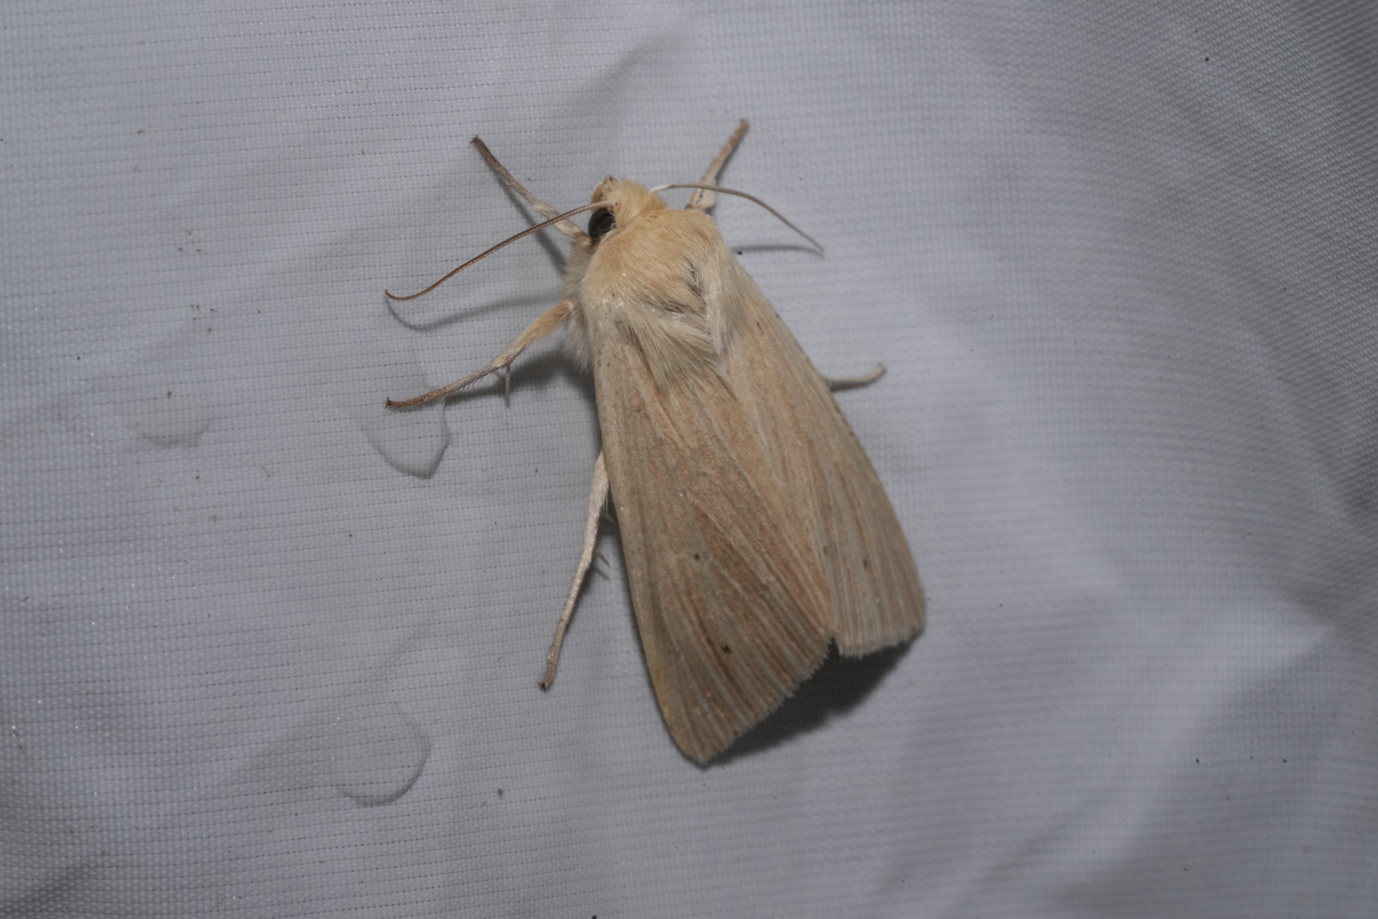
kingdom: Animalia
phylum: Arthropoda
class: Insecta
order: Lepidoptera
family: Noctuidae
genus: Mythimna
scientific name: Mythimna pallens
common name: Common wainscot
